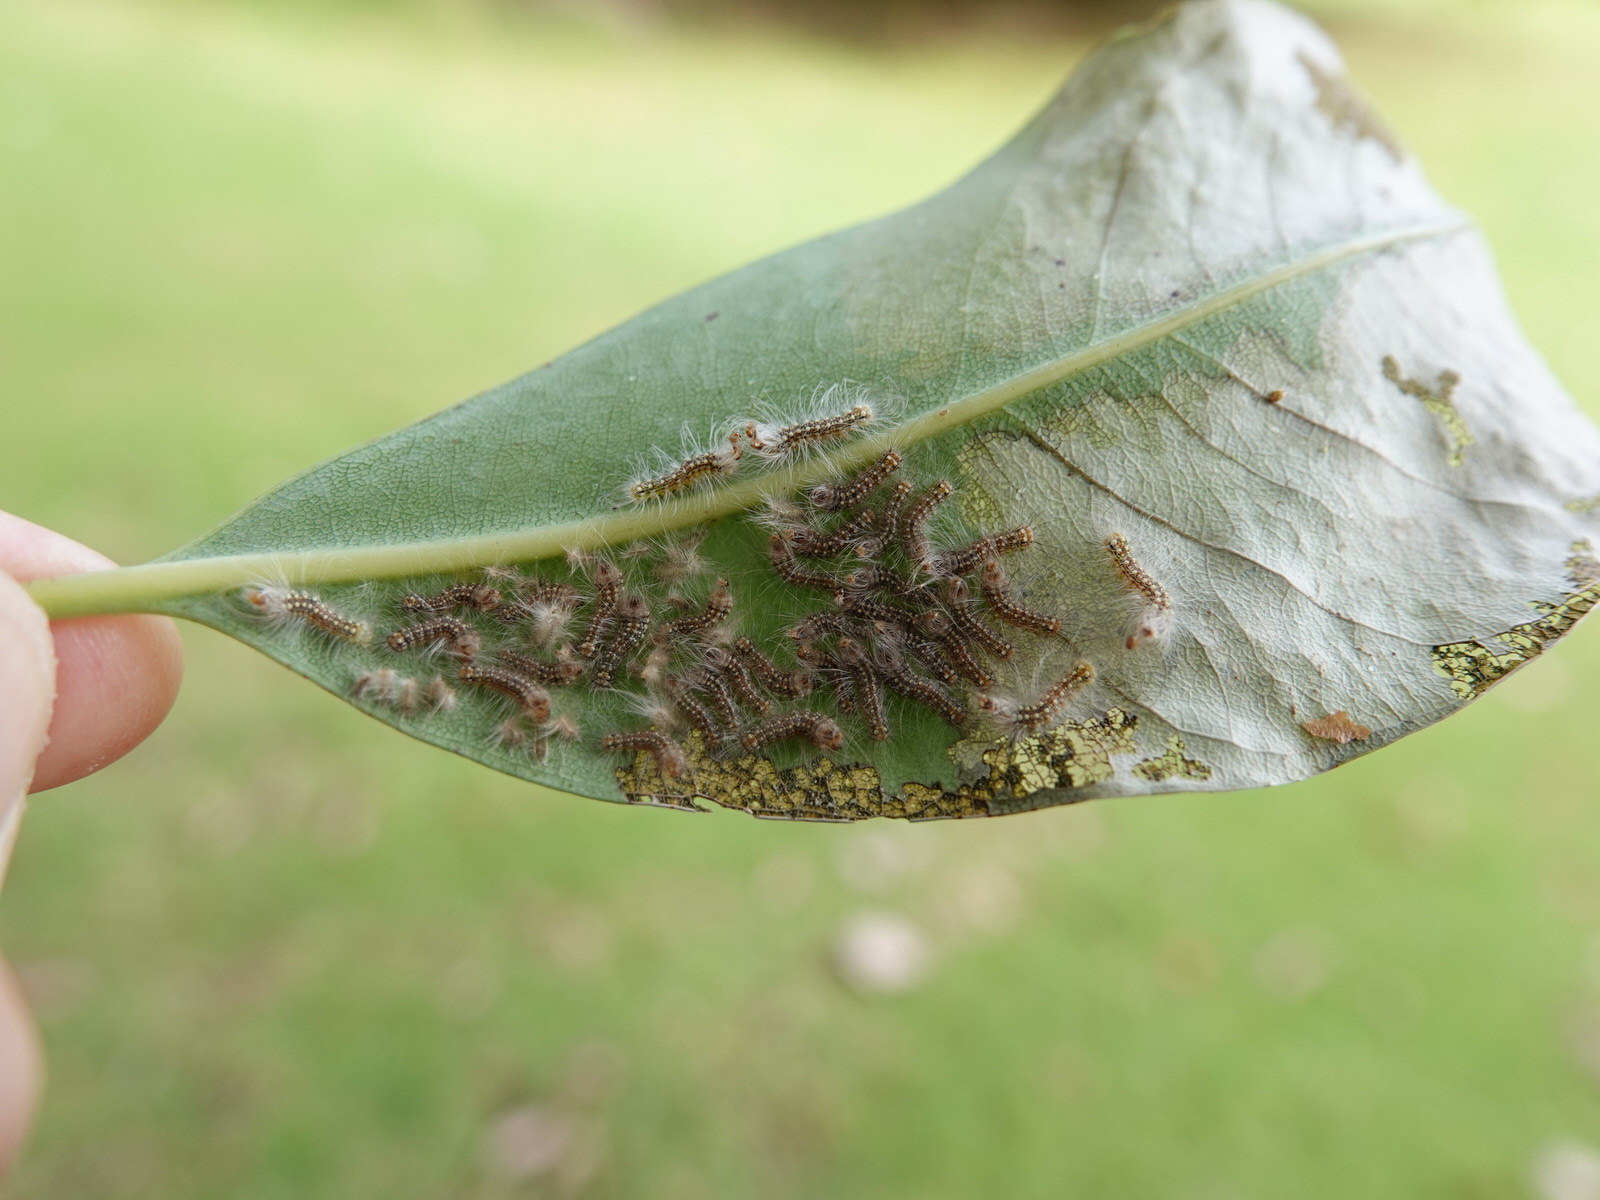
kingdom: Animalia
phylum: Arthropoda
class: Insecta
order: Lepidoptera
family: Nolidae
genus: Uraba
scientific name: Uraba lugens
